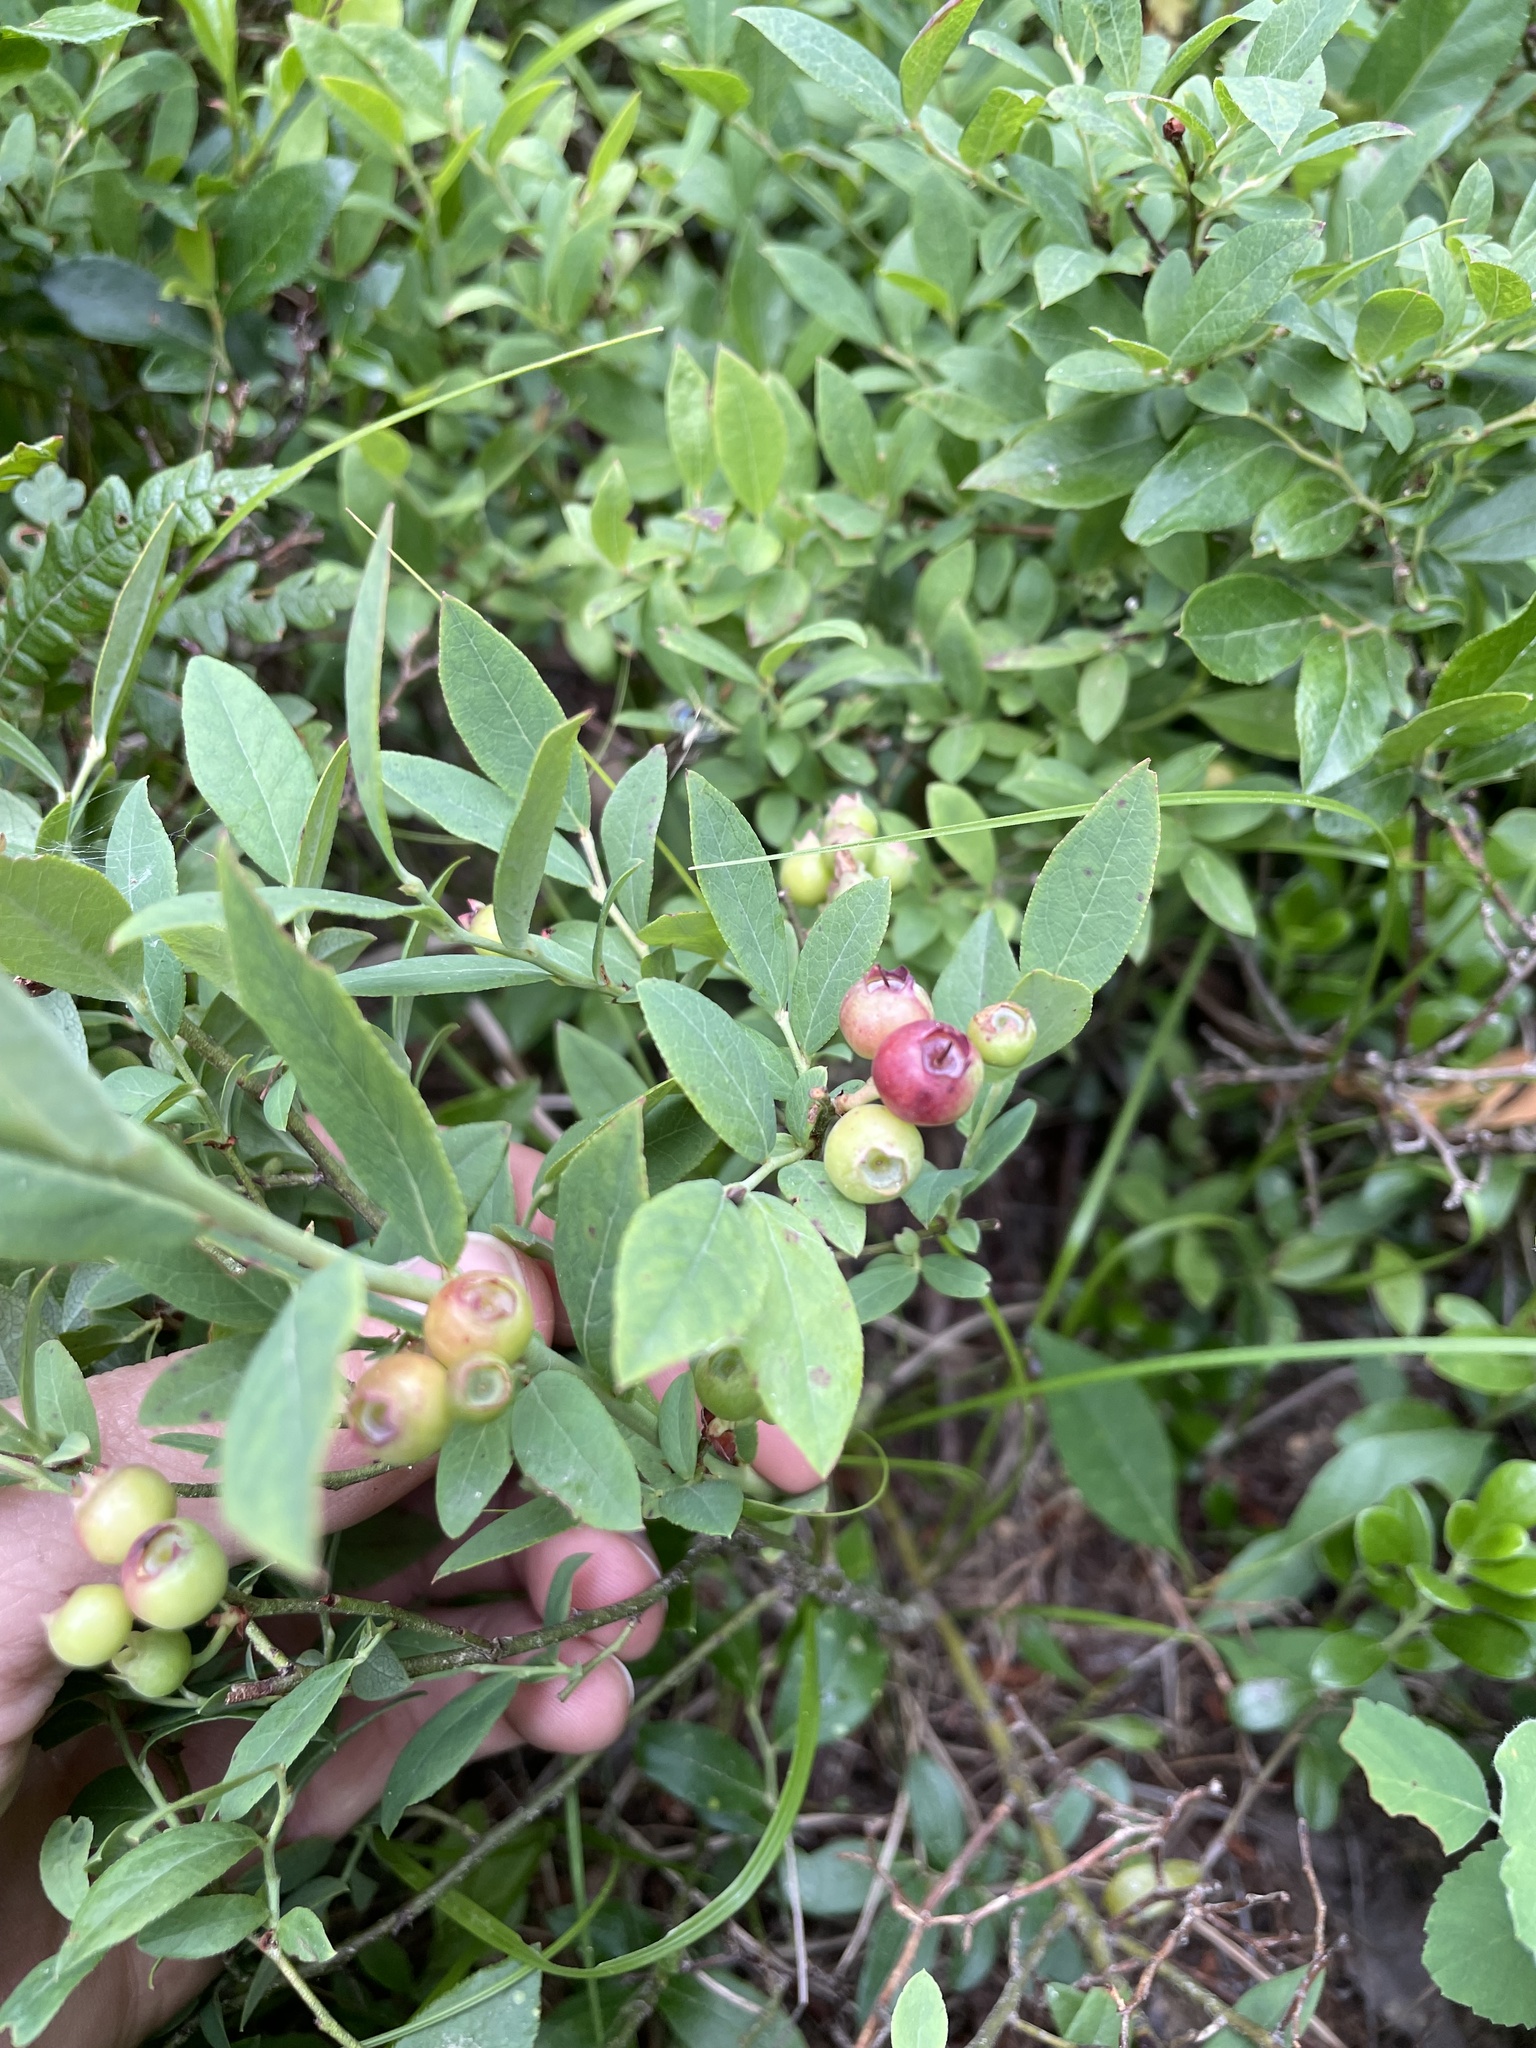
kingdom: Plantae
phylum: Tracheophyta
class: Magnoliopsida
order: Ericales
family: Ericaceae
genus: Vaccinium
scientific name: Vaccinium angustifolium
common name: Early lowbush blueberry
